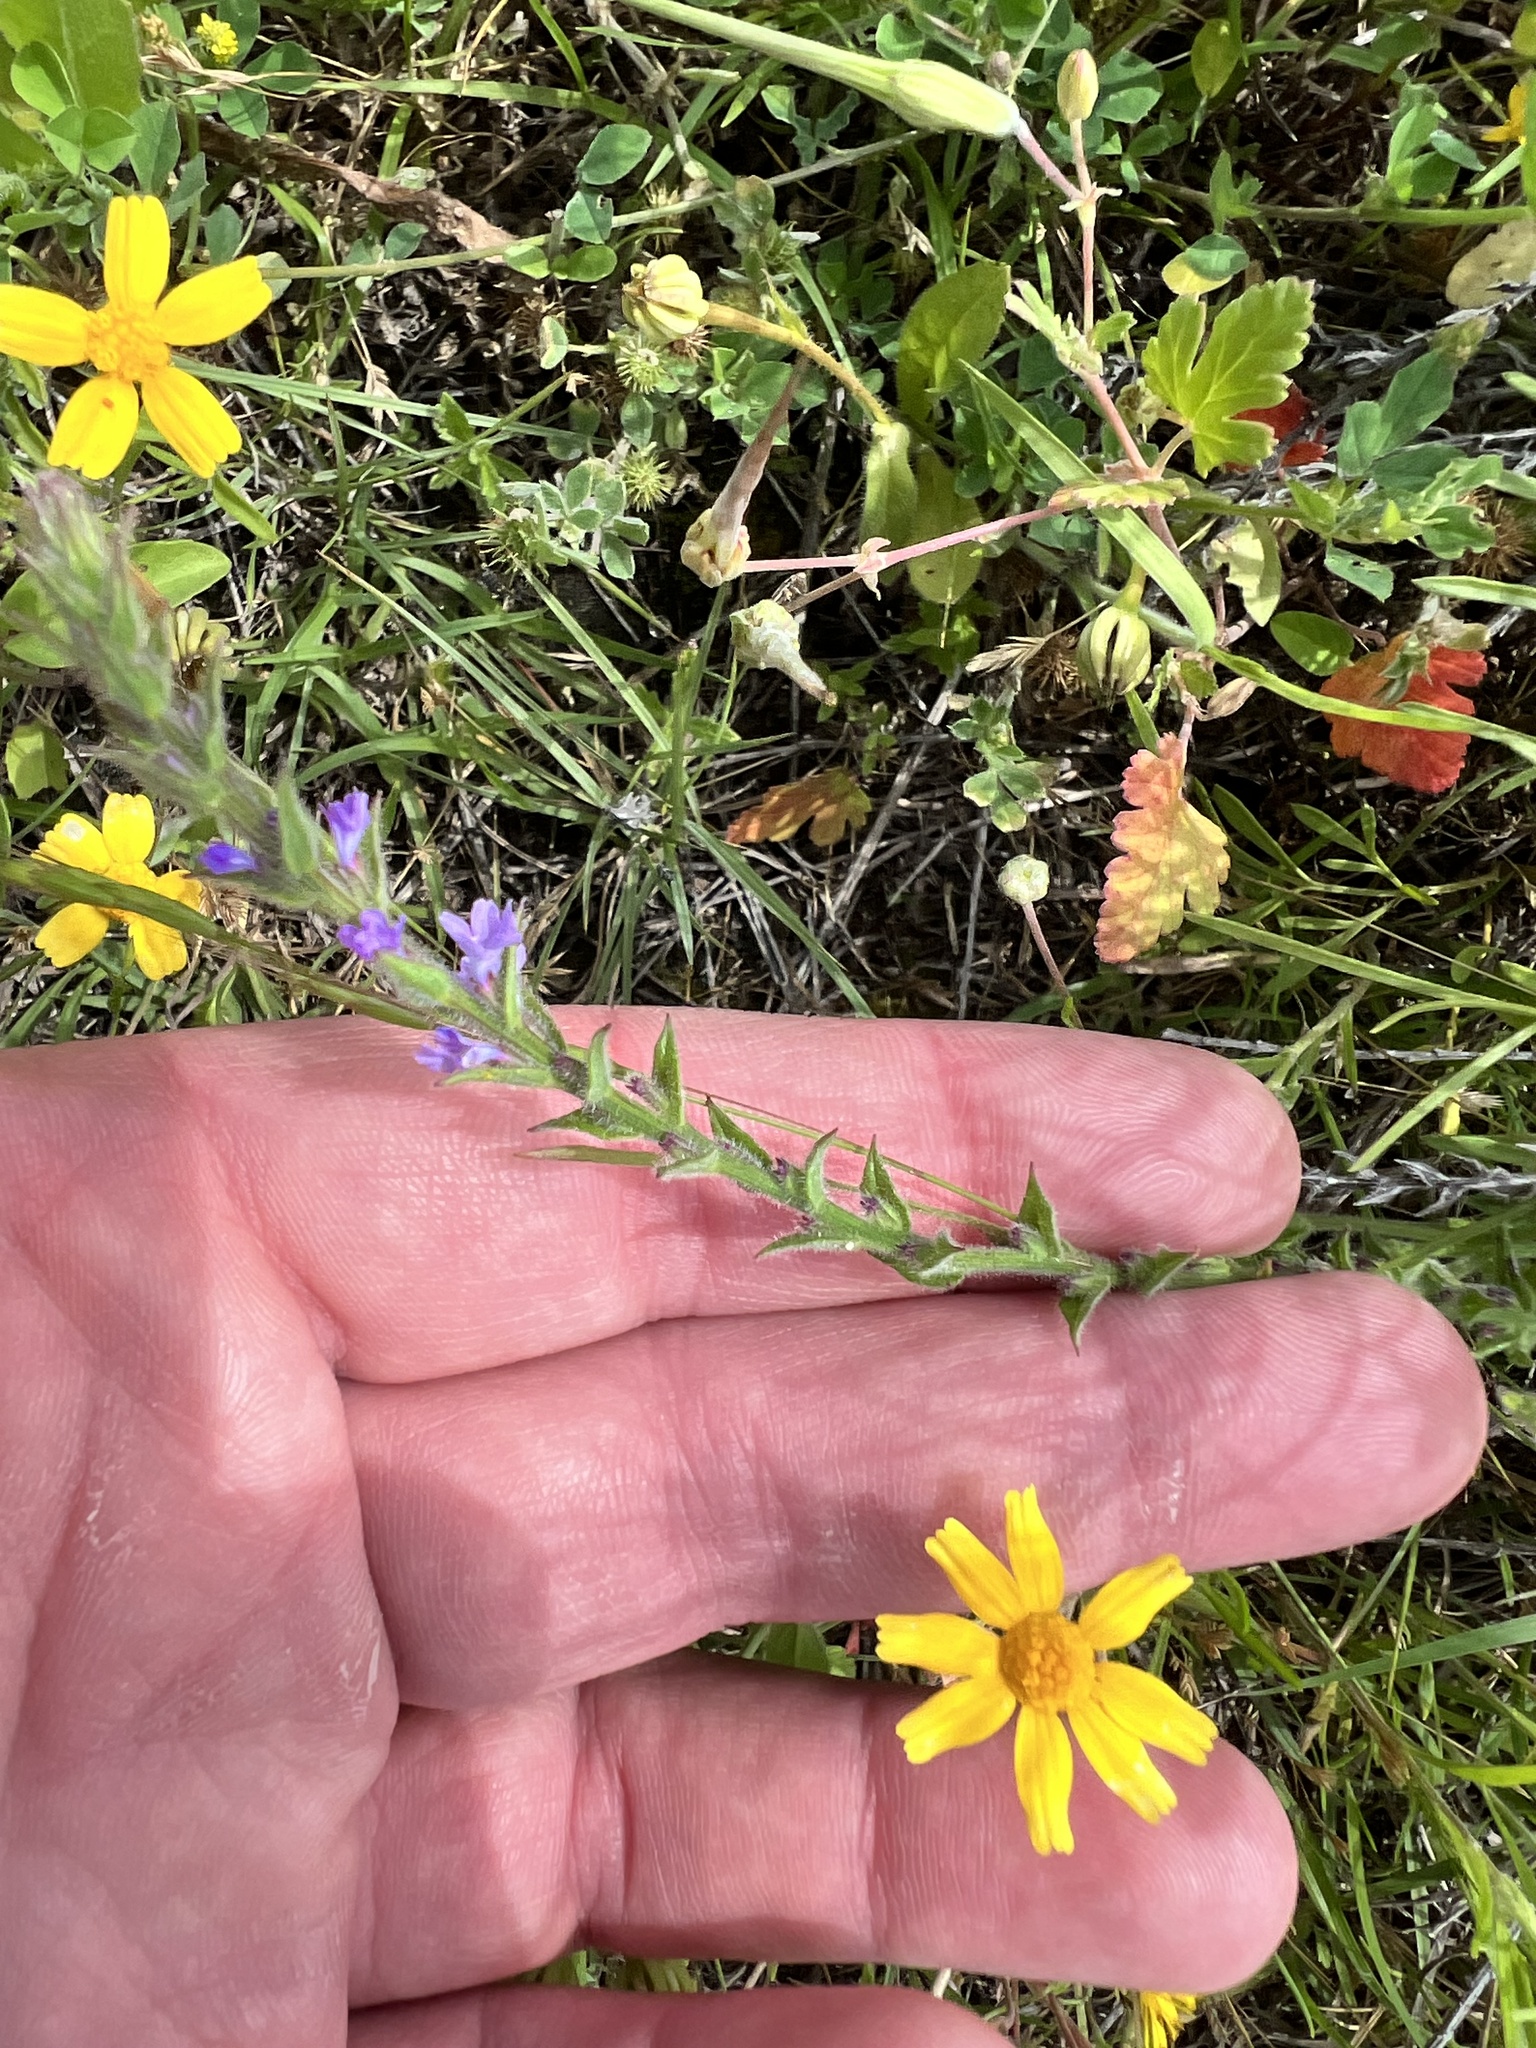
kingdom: Plantae
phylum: Tracheophyta
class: Magnoliopsida
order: Lamiales
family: Verbenaceae
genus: Verbena
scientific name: Verbena canescens
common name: Gray vervain
